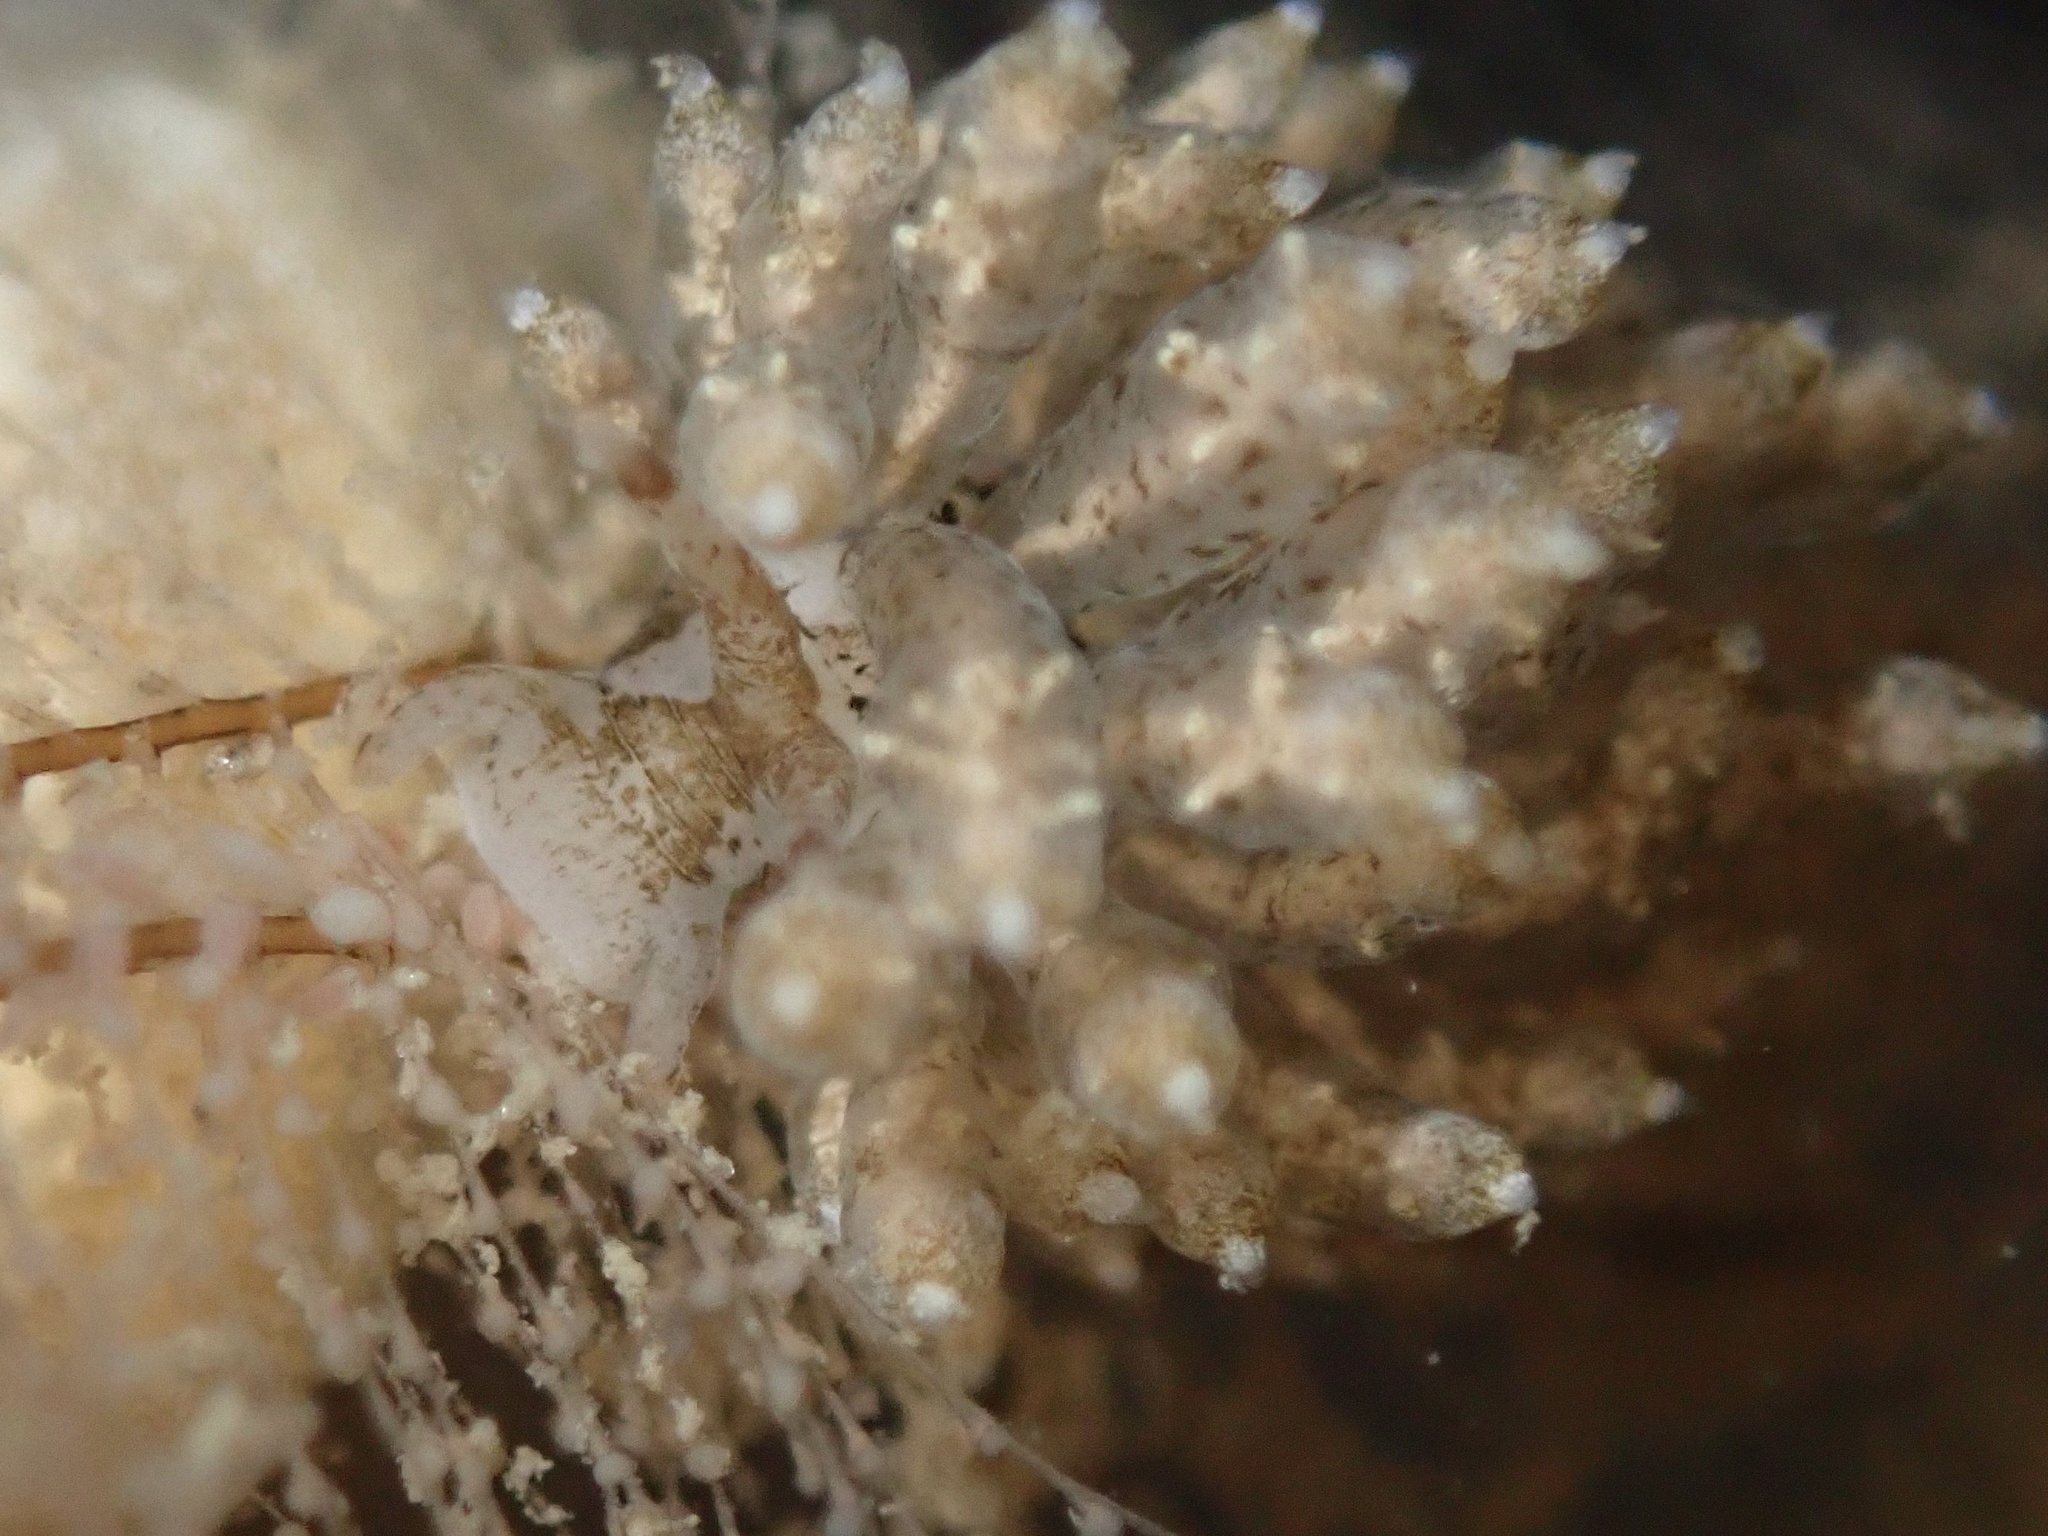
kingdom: Animalia
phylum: Mollusca
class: Gastropoda
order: Nudibranchia
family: Eubranchidae
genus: Eubranchus
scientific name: Eubranchus rustyus
